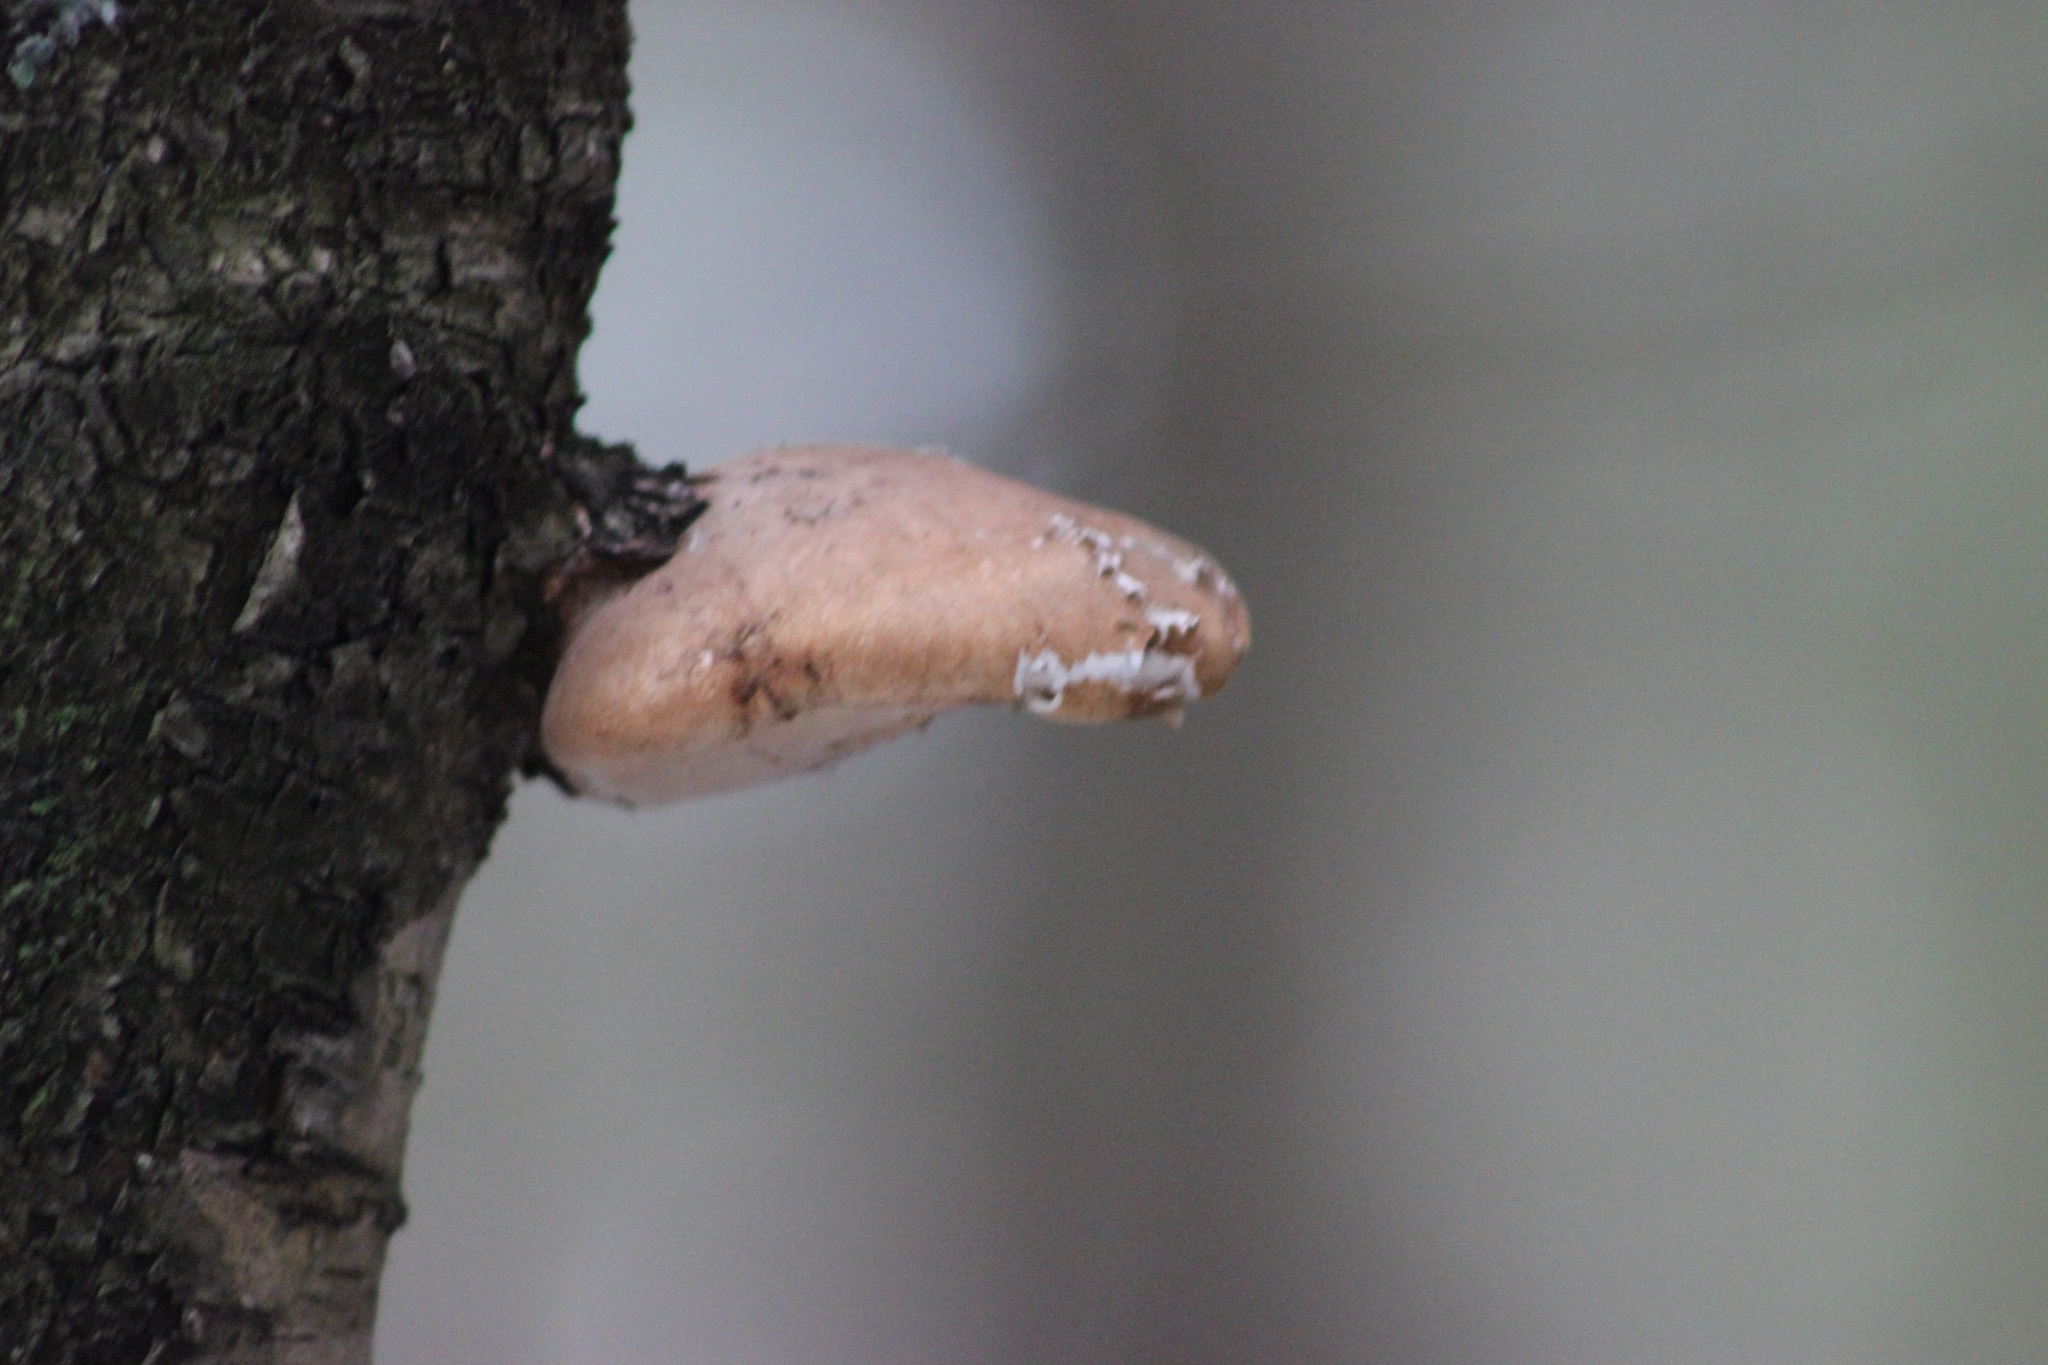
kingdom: Fungi
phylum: Basidiomycota
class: Agaricomycetes
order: Polyporales
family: Fomitopsidaceae
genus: Fomitopsis
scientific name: Fomitopsis betulina
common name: Birch polypore
